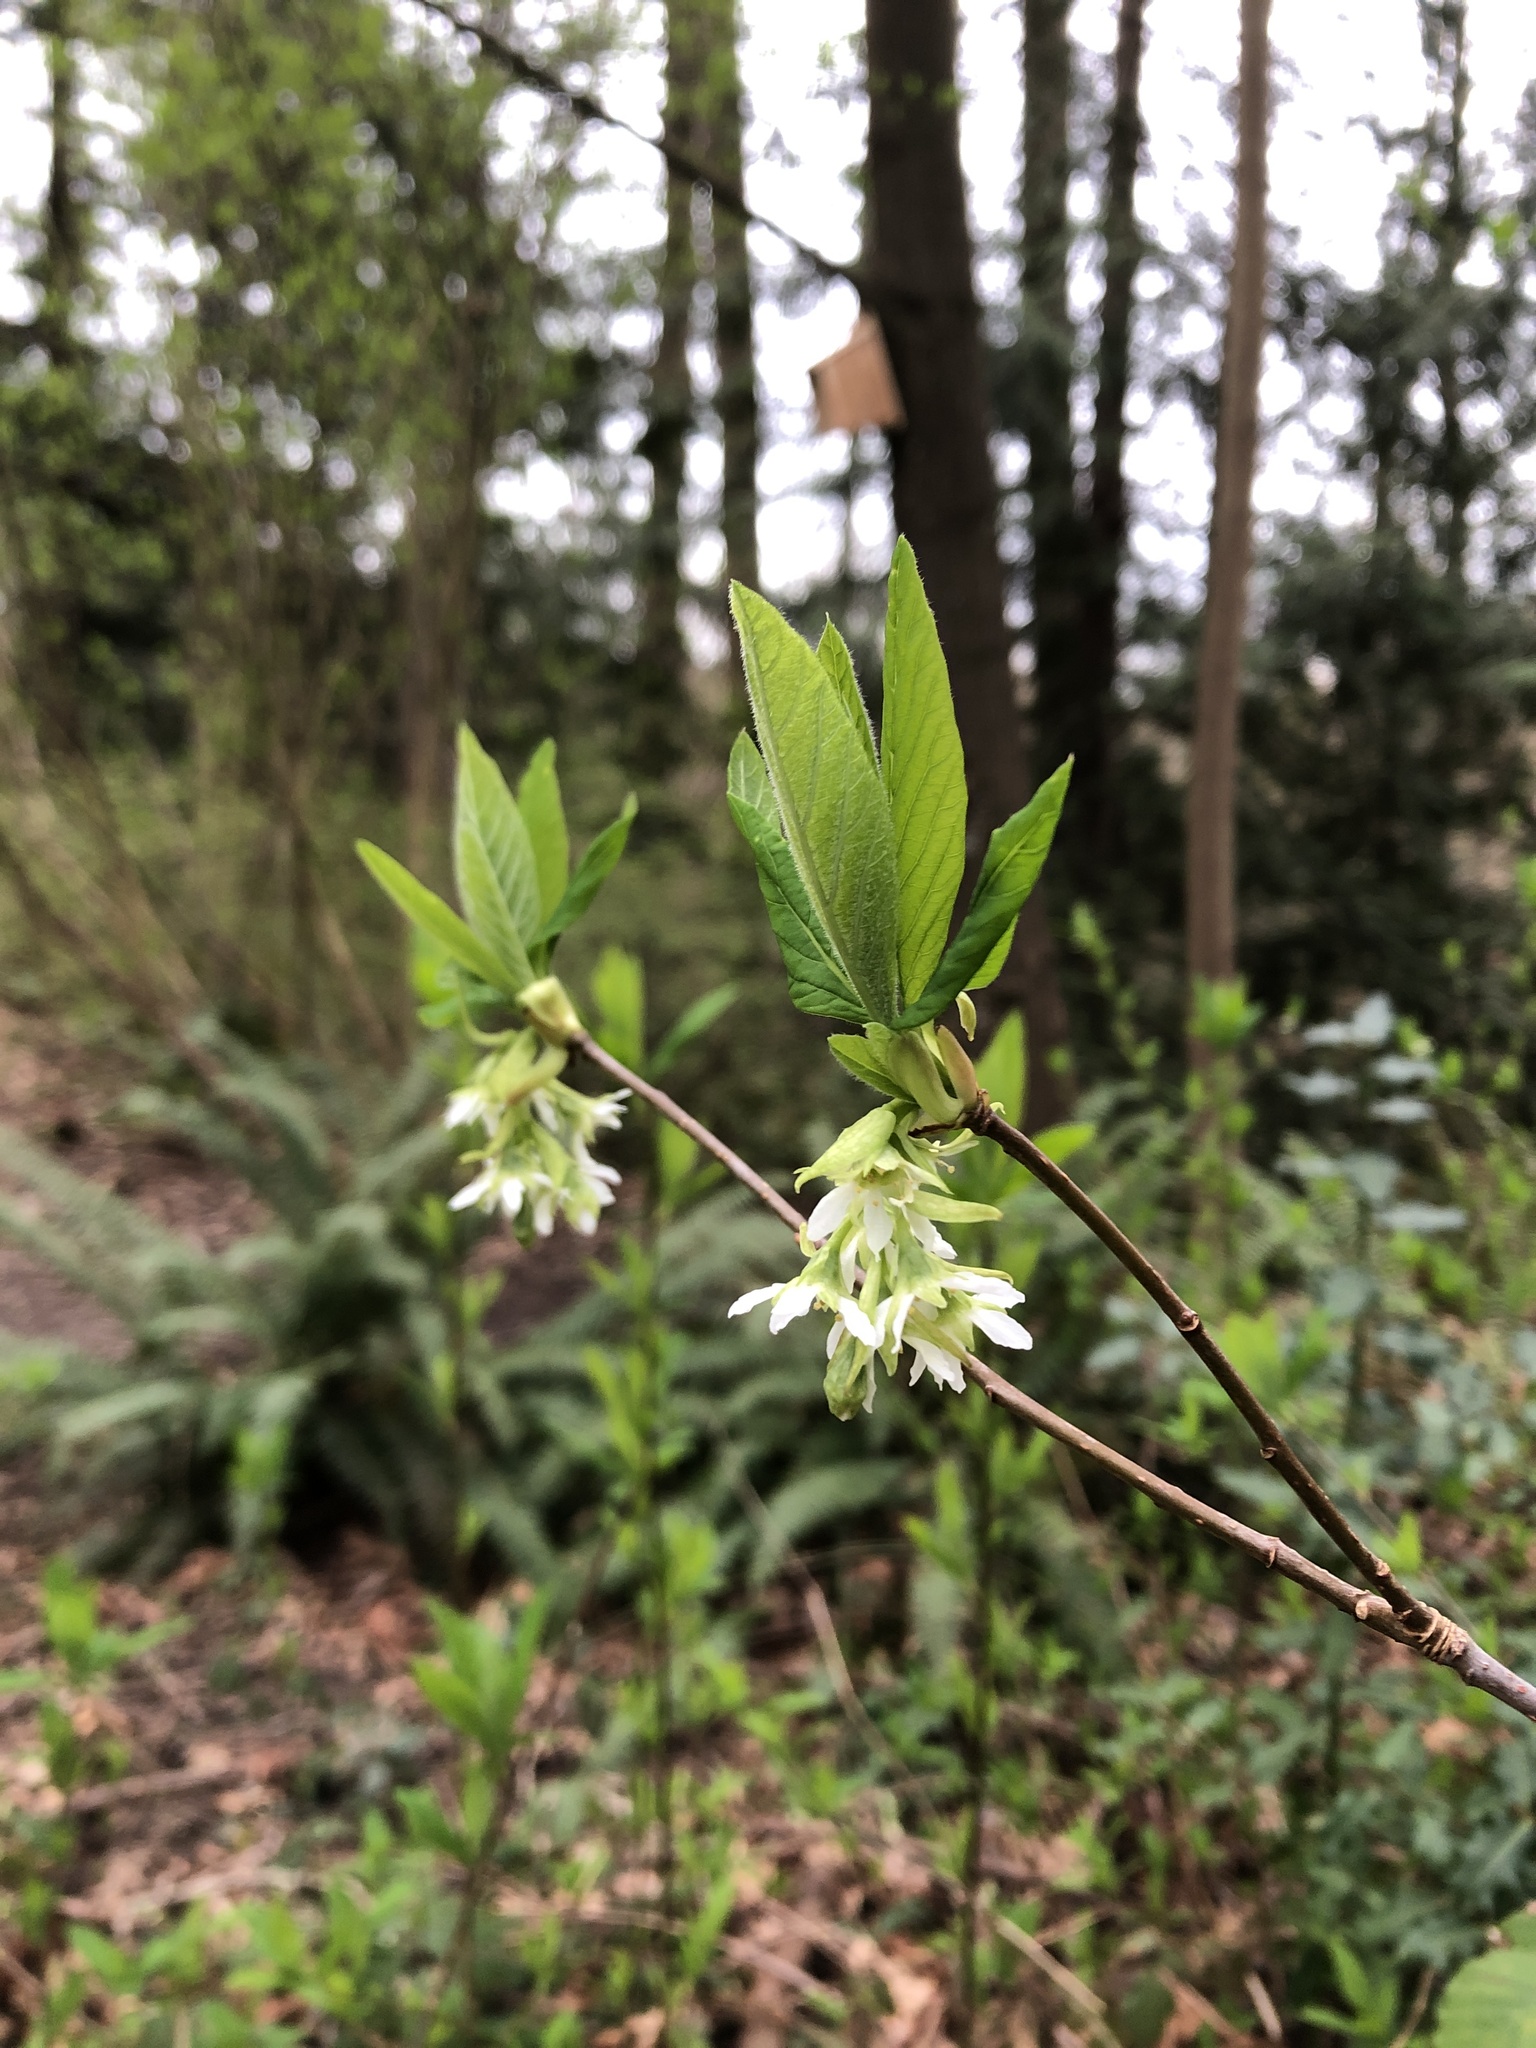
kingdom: Plantae
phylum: Tracheophyta
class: Magnoliopsida
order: Rosales
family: Rosaceae
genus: Oemleria
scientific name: Oemleria cerasiformis
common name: Osoberry
